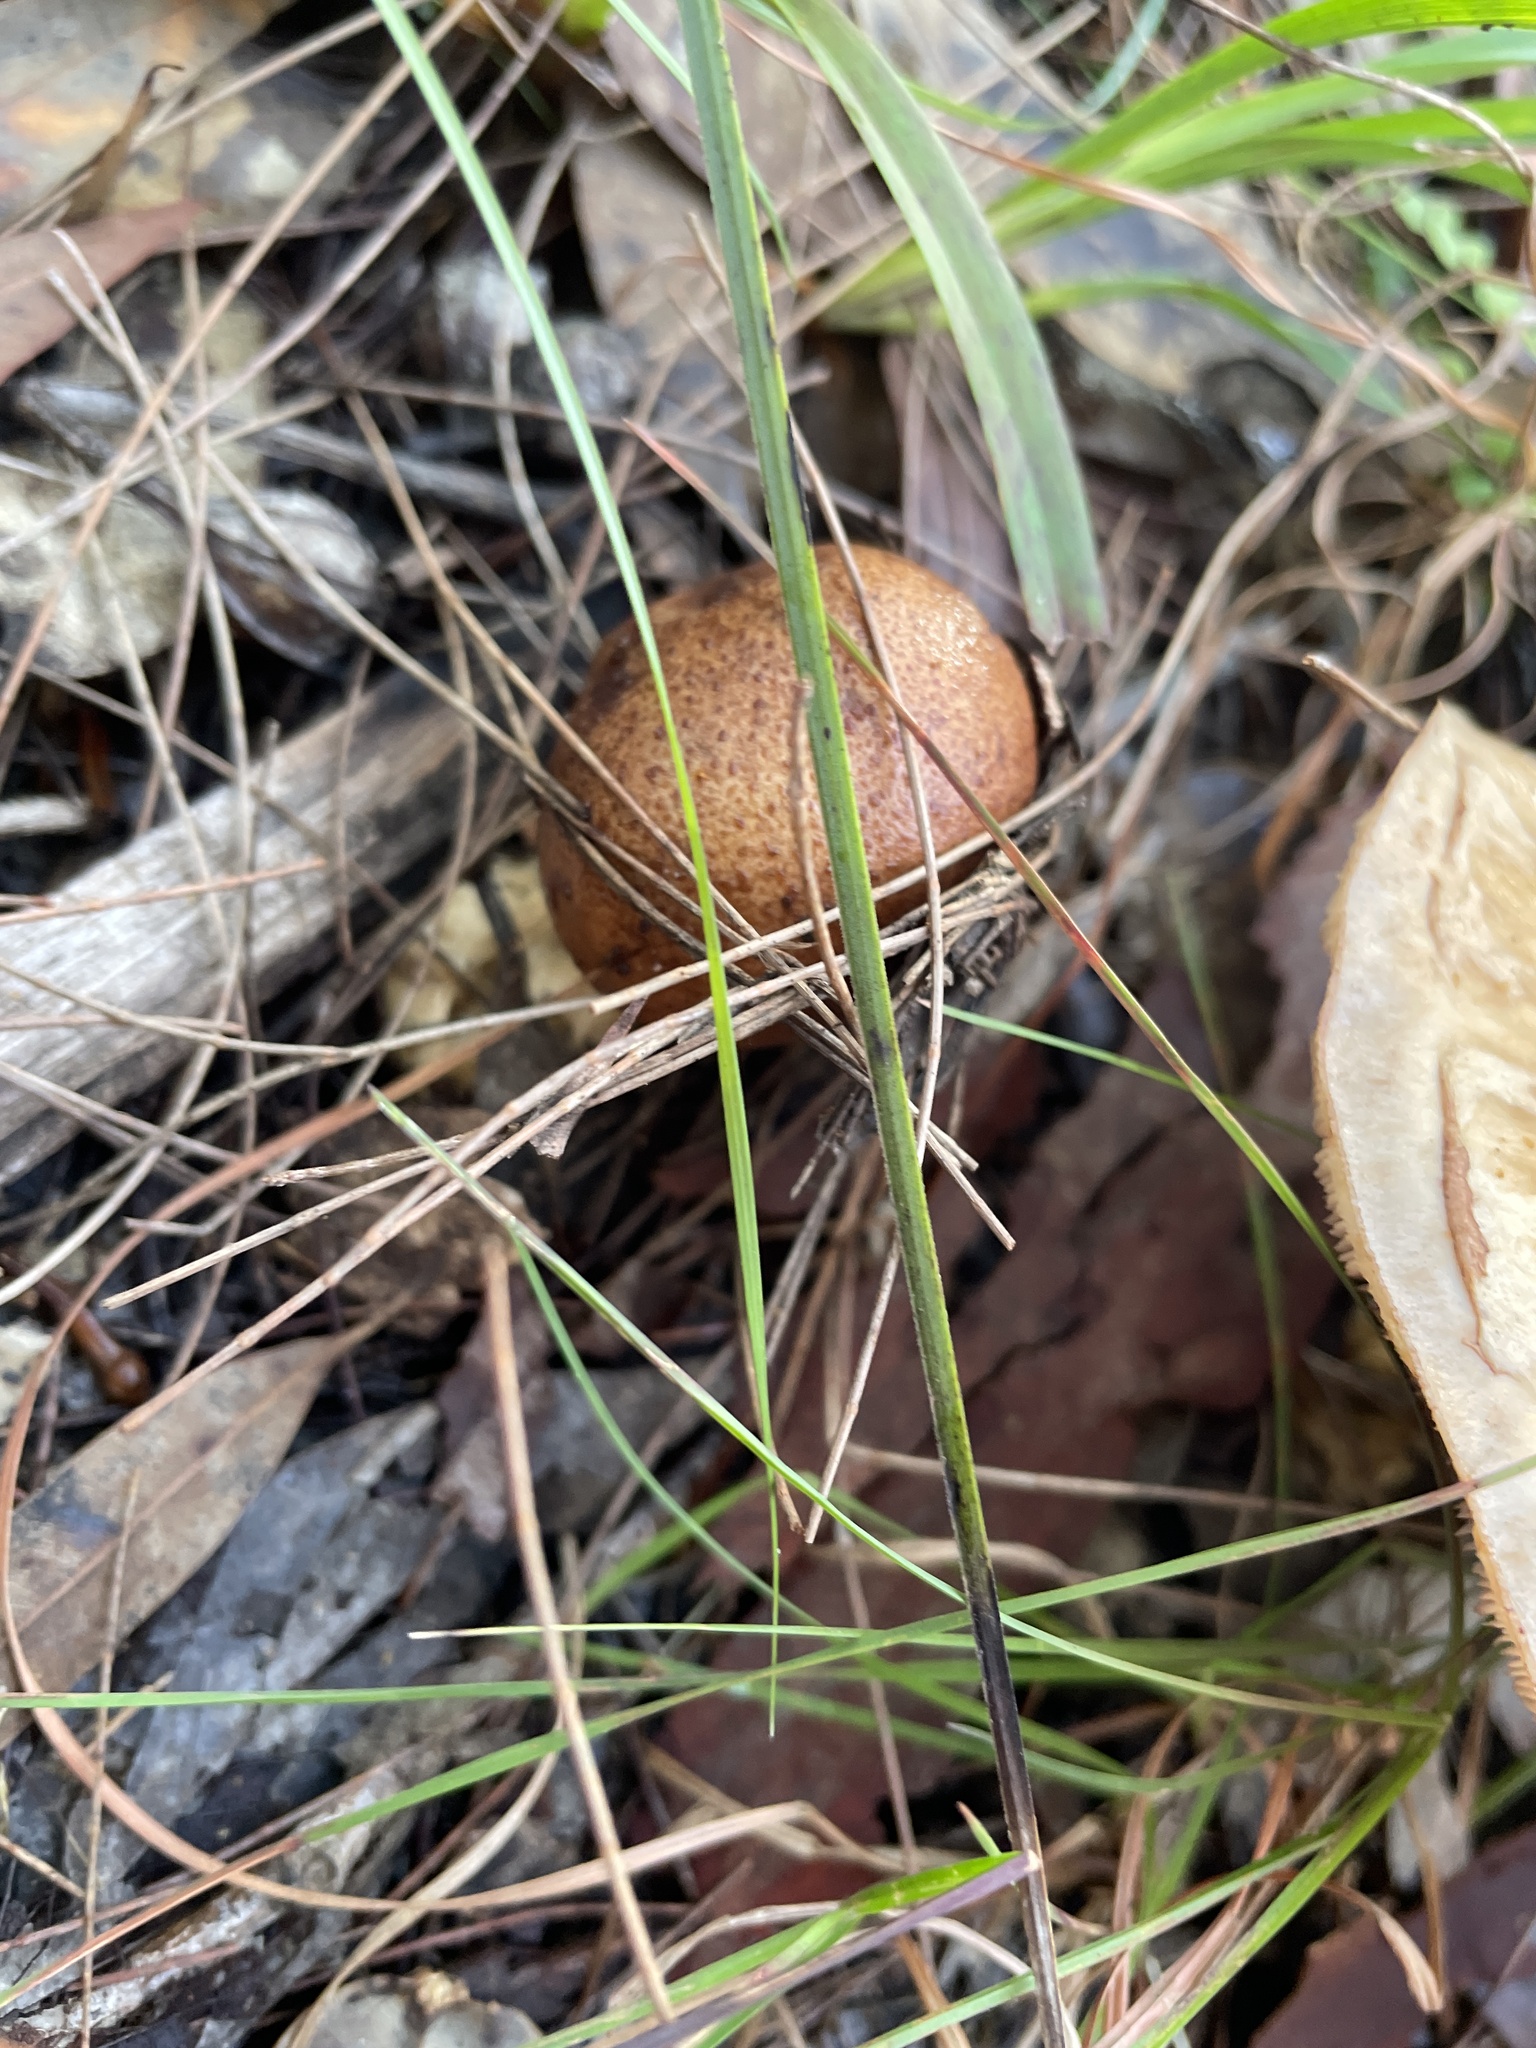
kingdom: Fungi
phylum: Basidiomycota
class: Agaricomycetes
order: Agaricales
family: Hymenogastraceae
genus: Hebeloma
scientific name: Hebeloma victoriense
